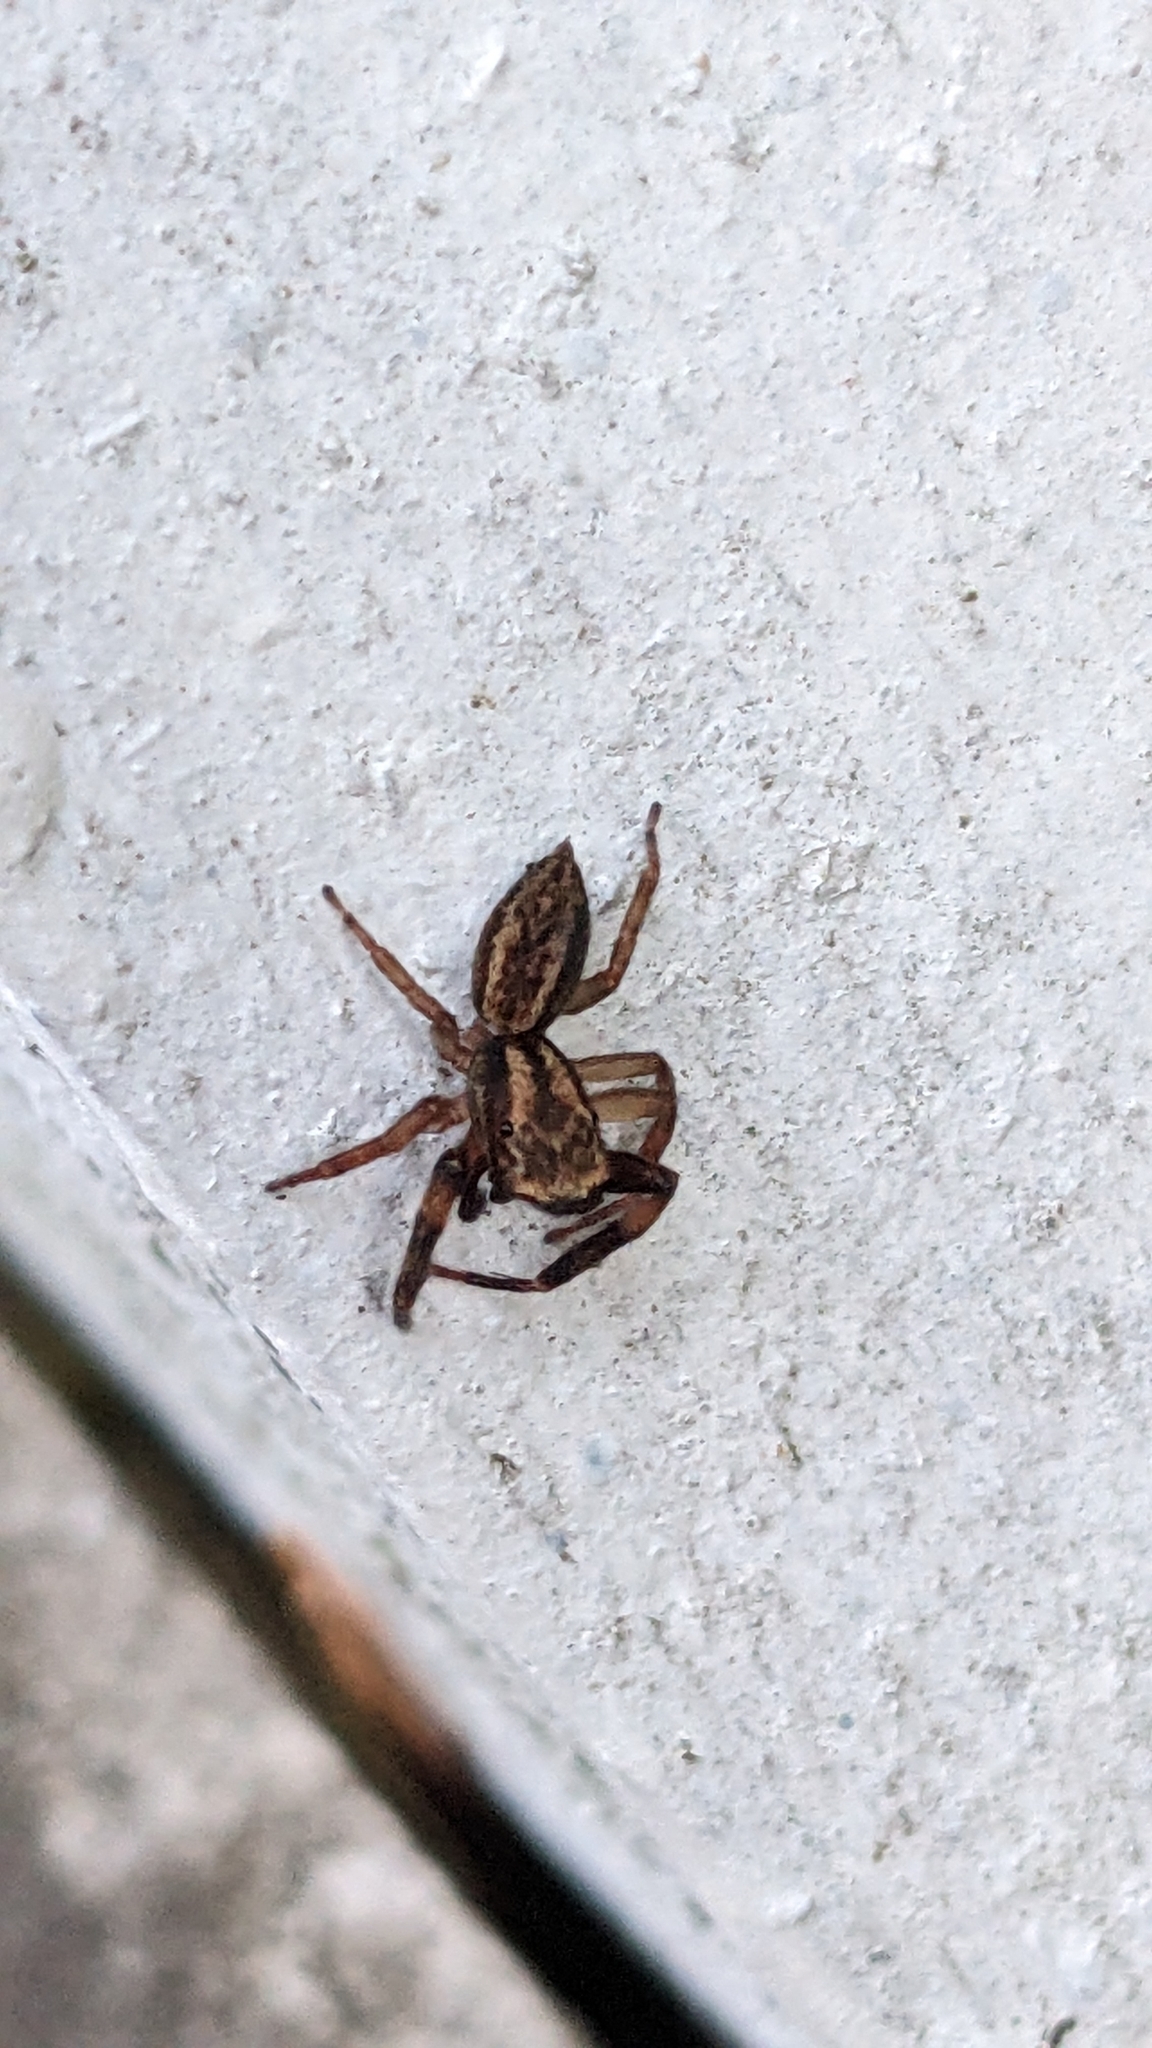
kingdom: Animalia
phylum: Arthropoda
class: Arachnida
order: Araneae
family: Salticidae
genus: Trite
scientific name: Trite auricoma
